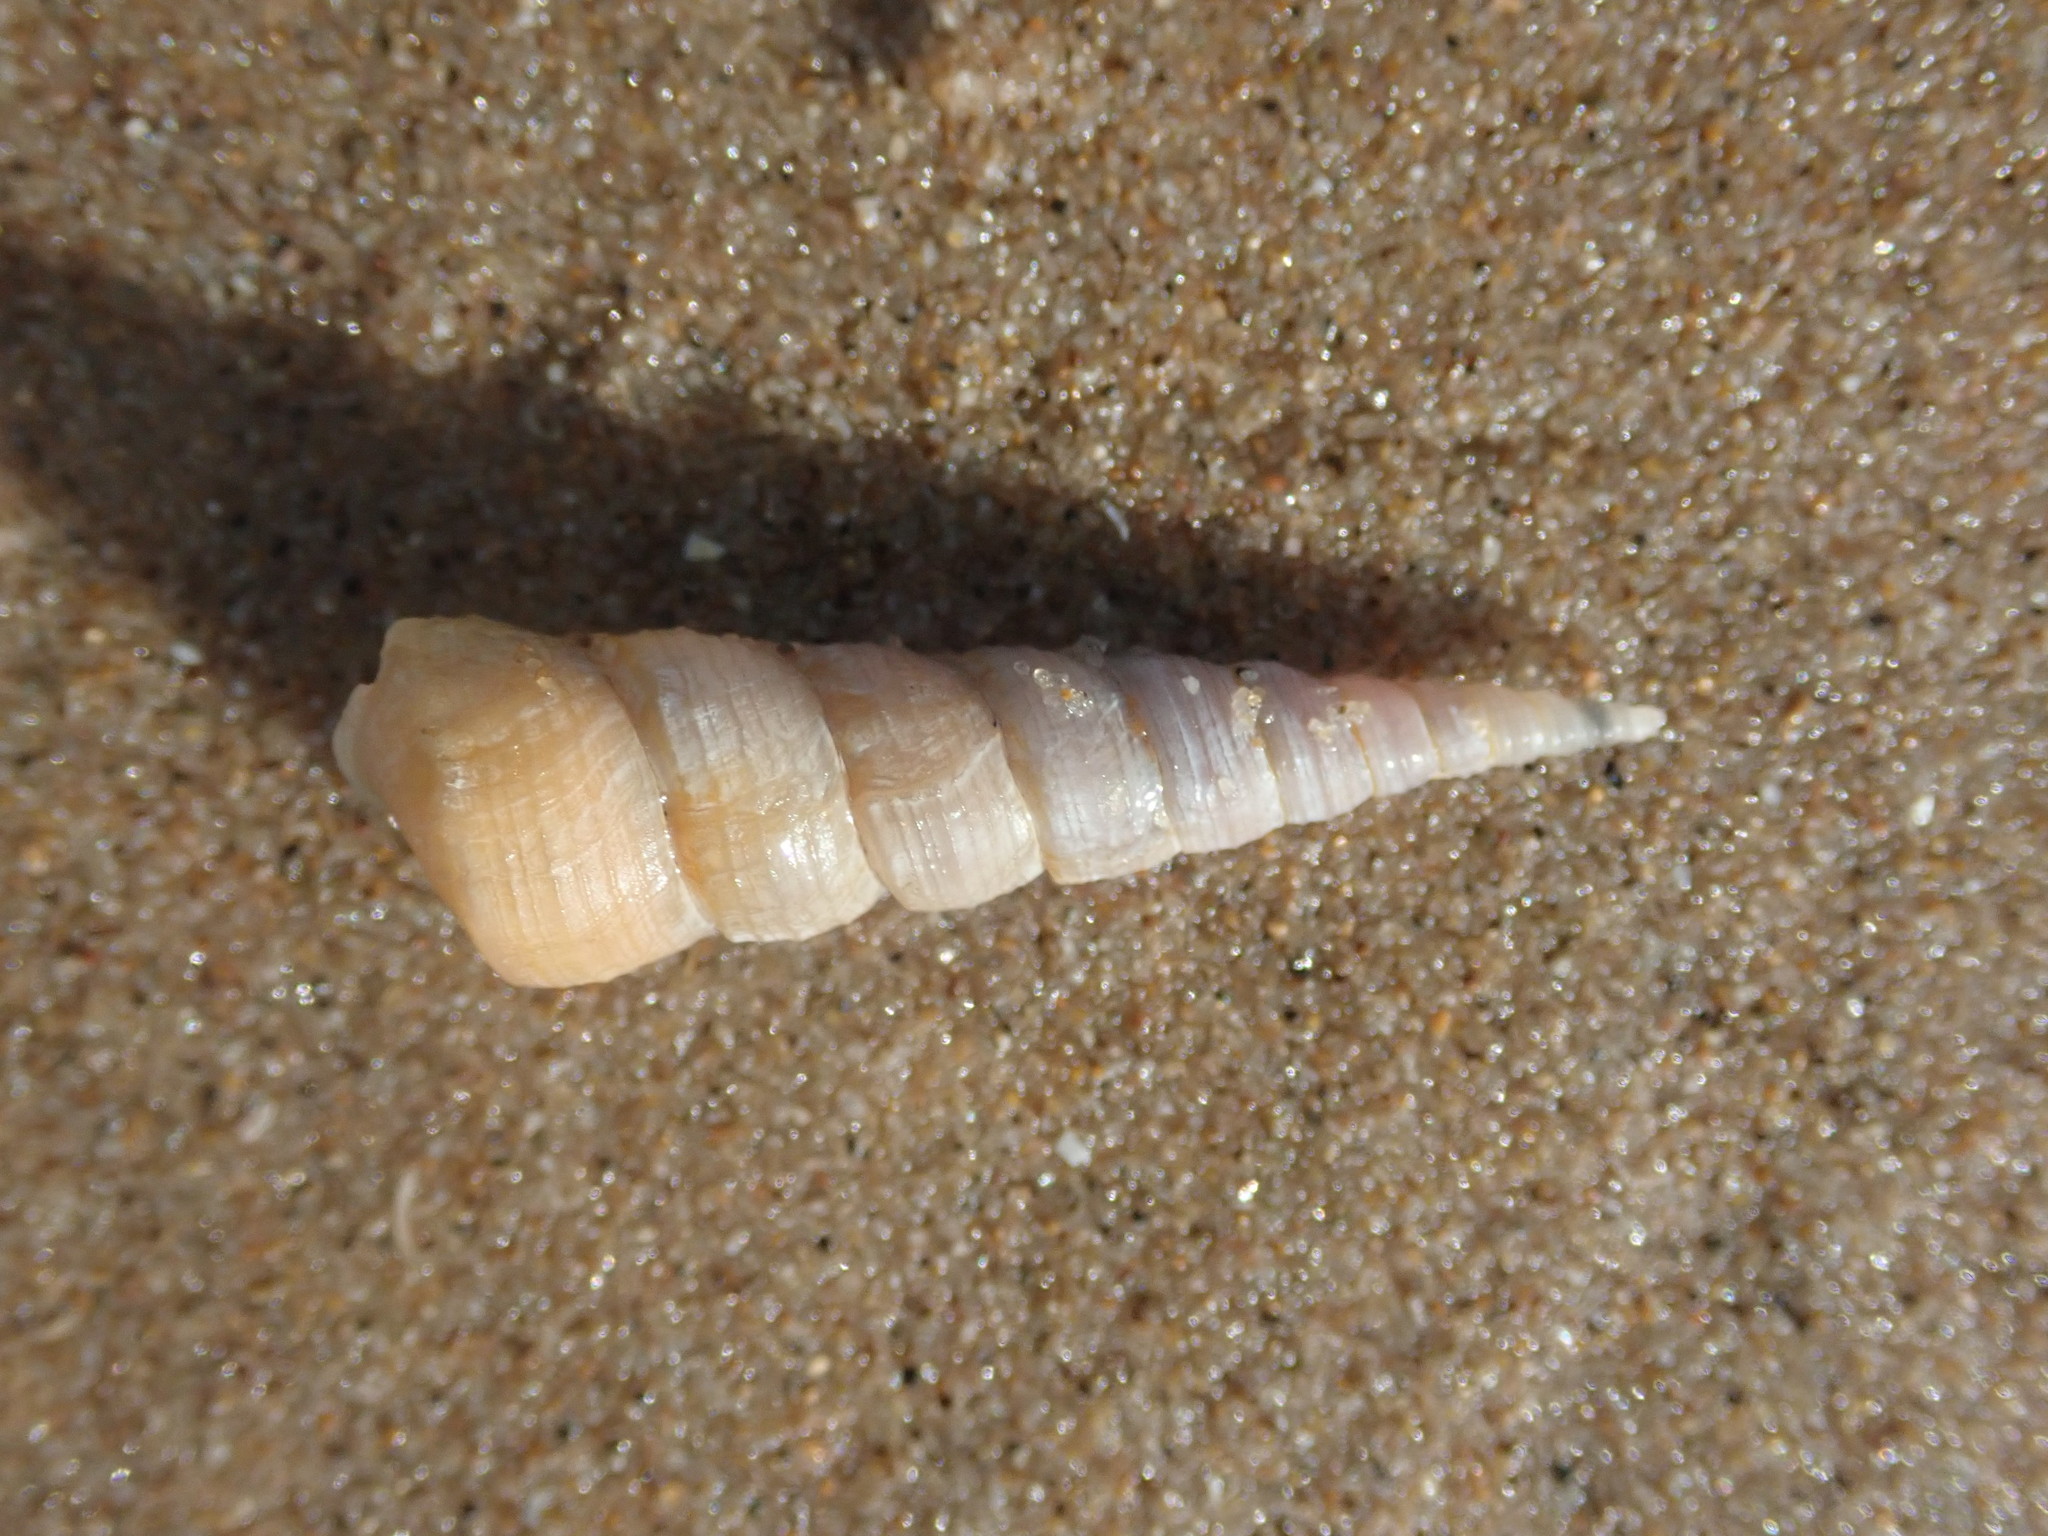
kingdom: Animalia
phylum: Mollusca
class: Gastropoda
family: Turritellidae
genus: Turritellinella
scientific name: Turritellinella tricarinata
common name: Auger shell
